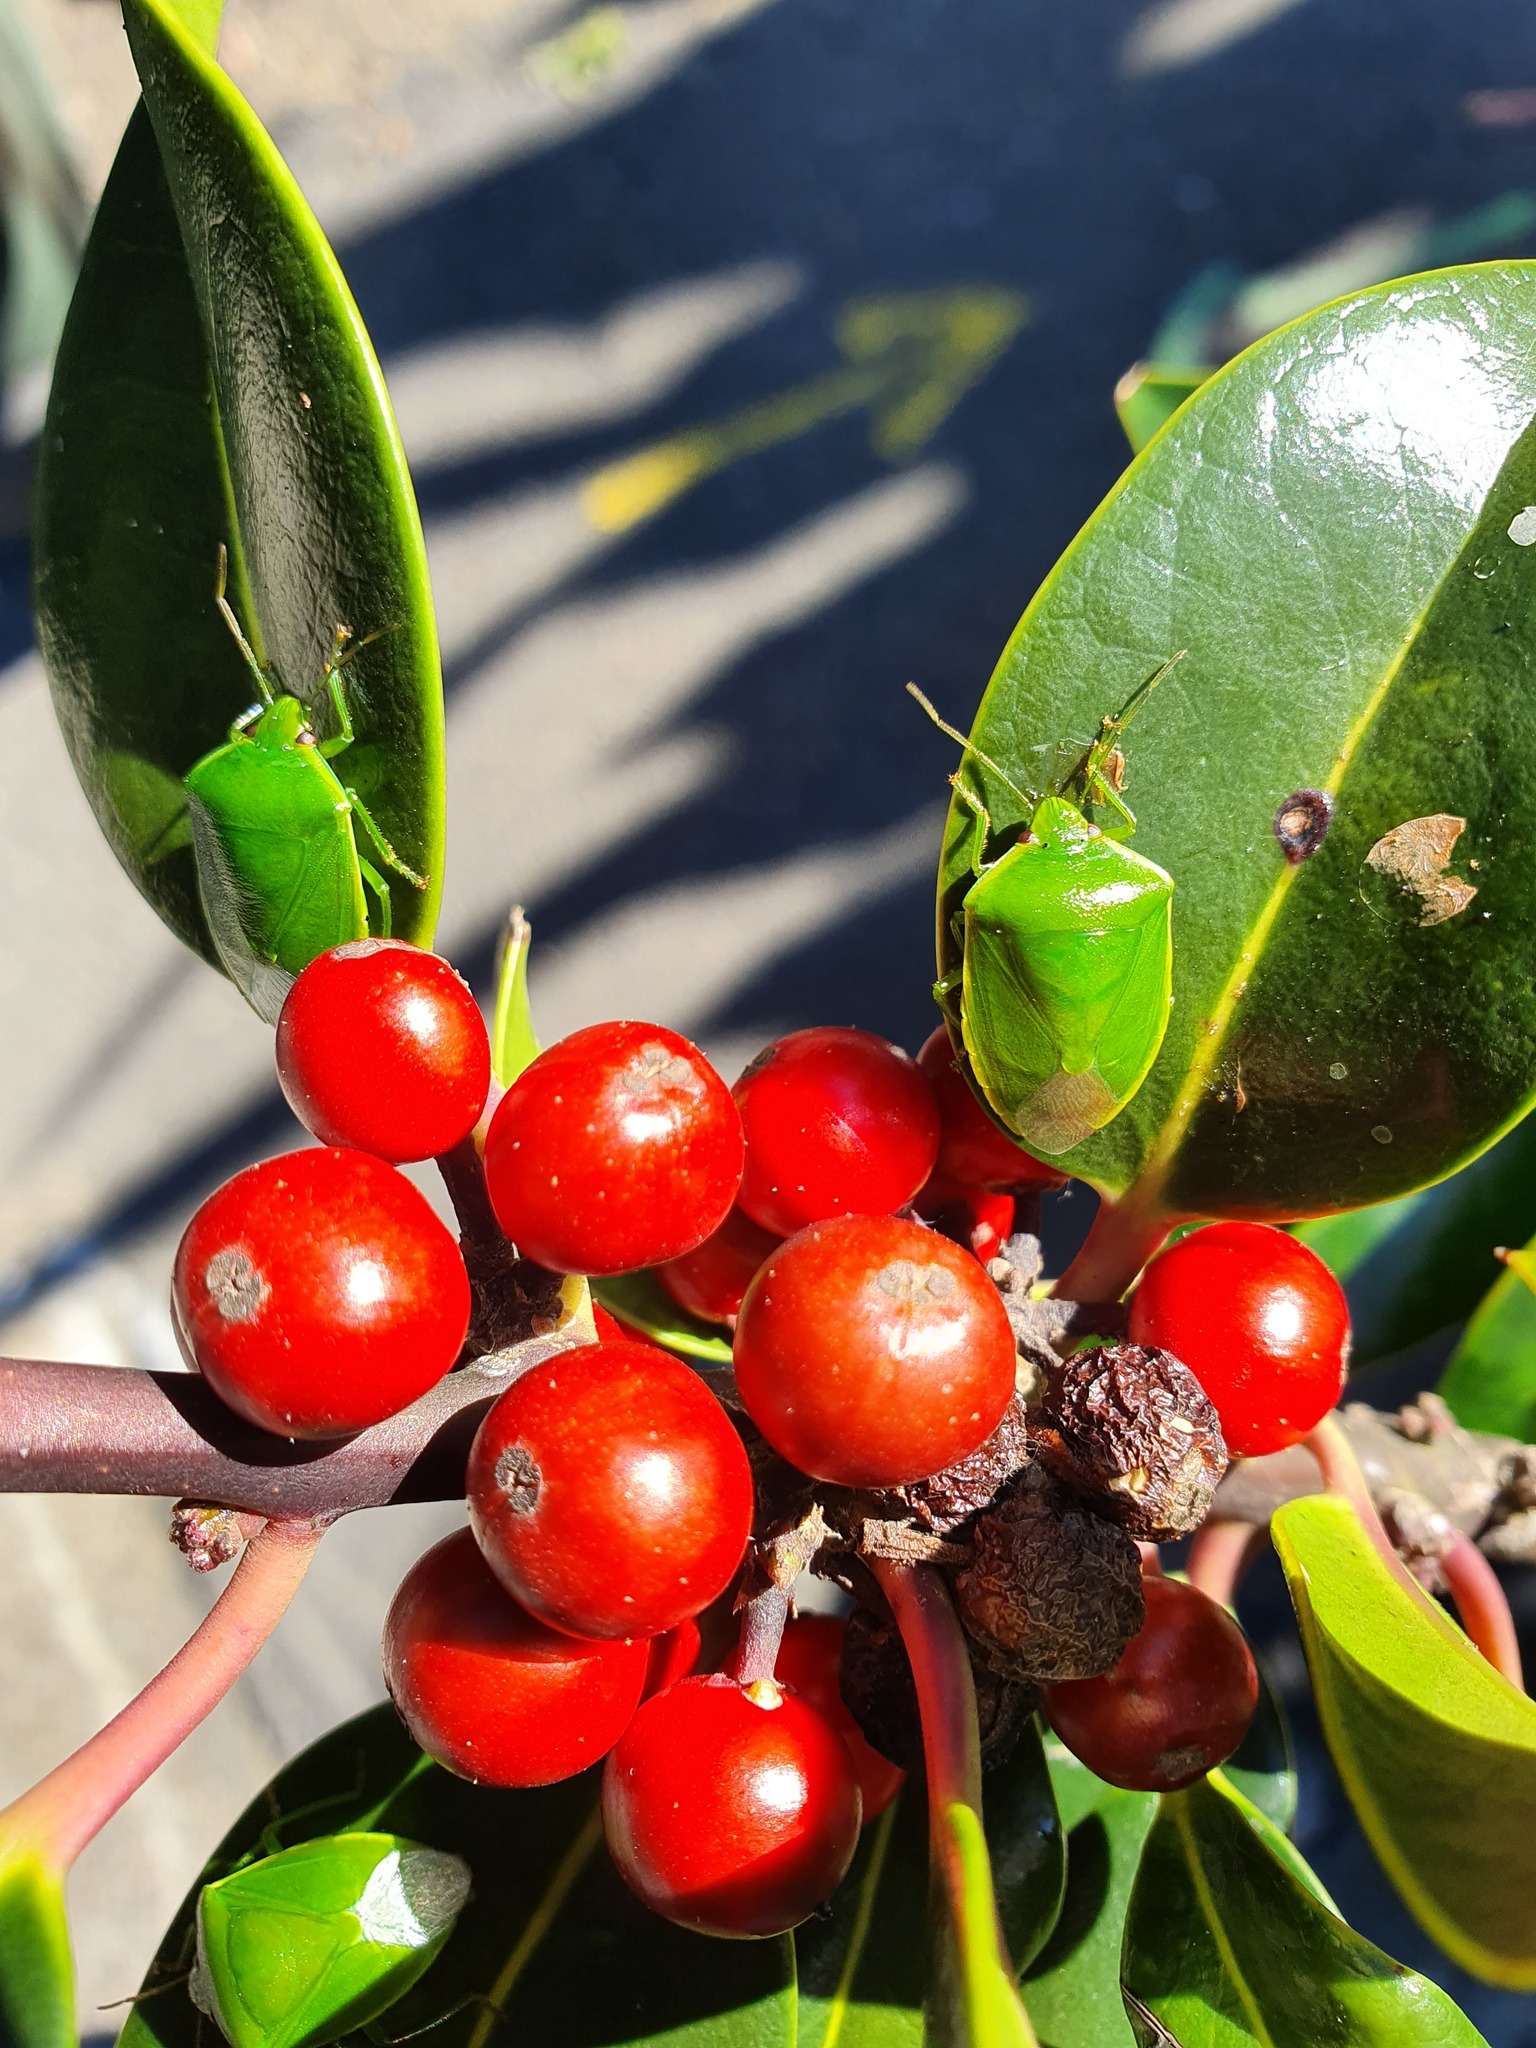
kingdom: Animalia
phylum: Arthropoda
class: Insecta
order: Hemiptera
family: Pentatomidae
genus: Glaucias
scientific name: Glaucias amyota
